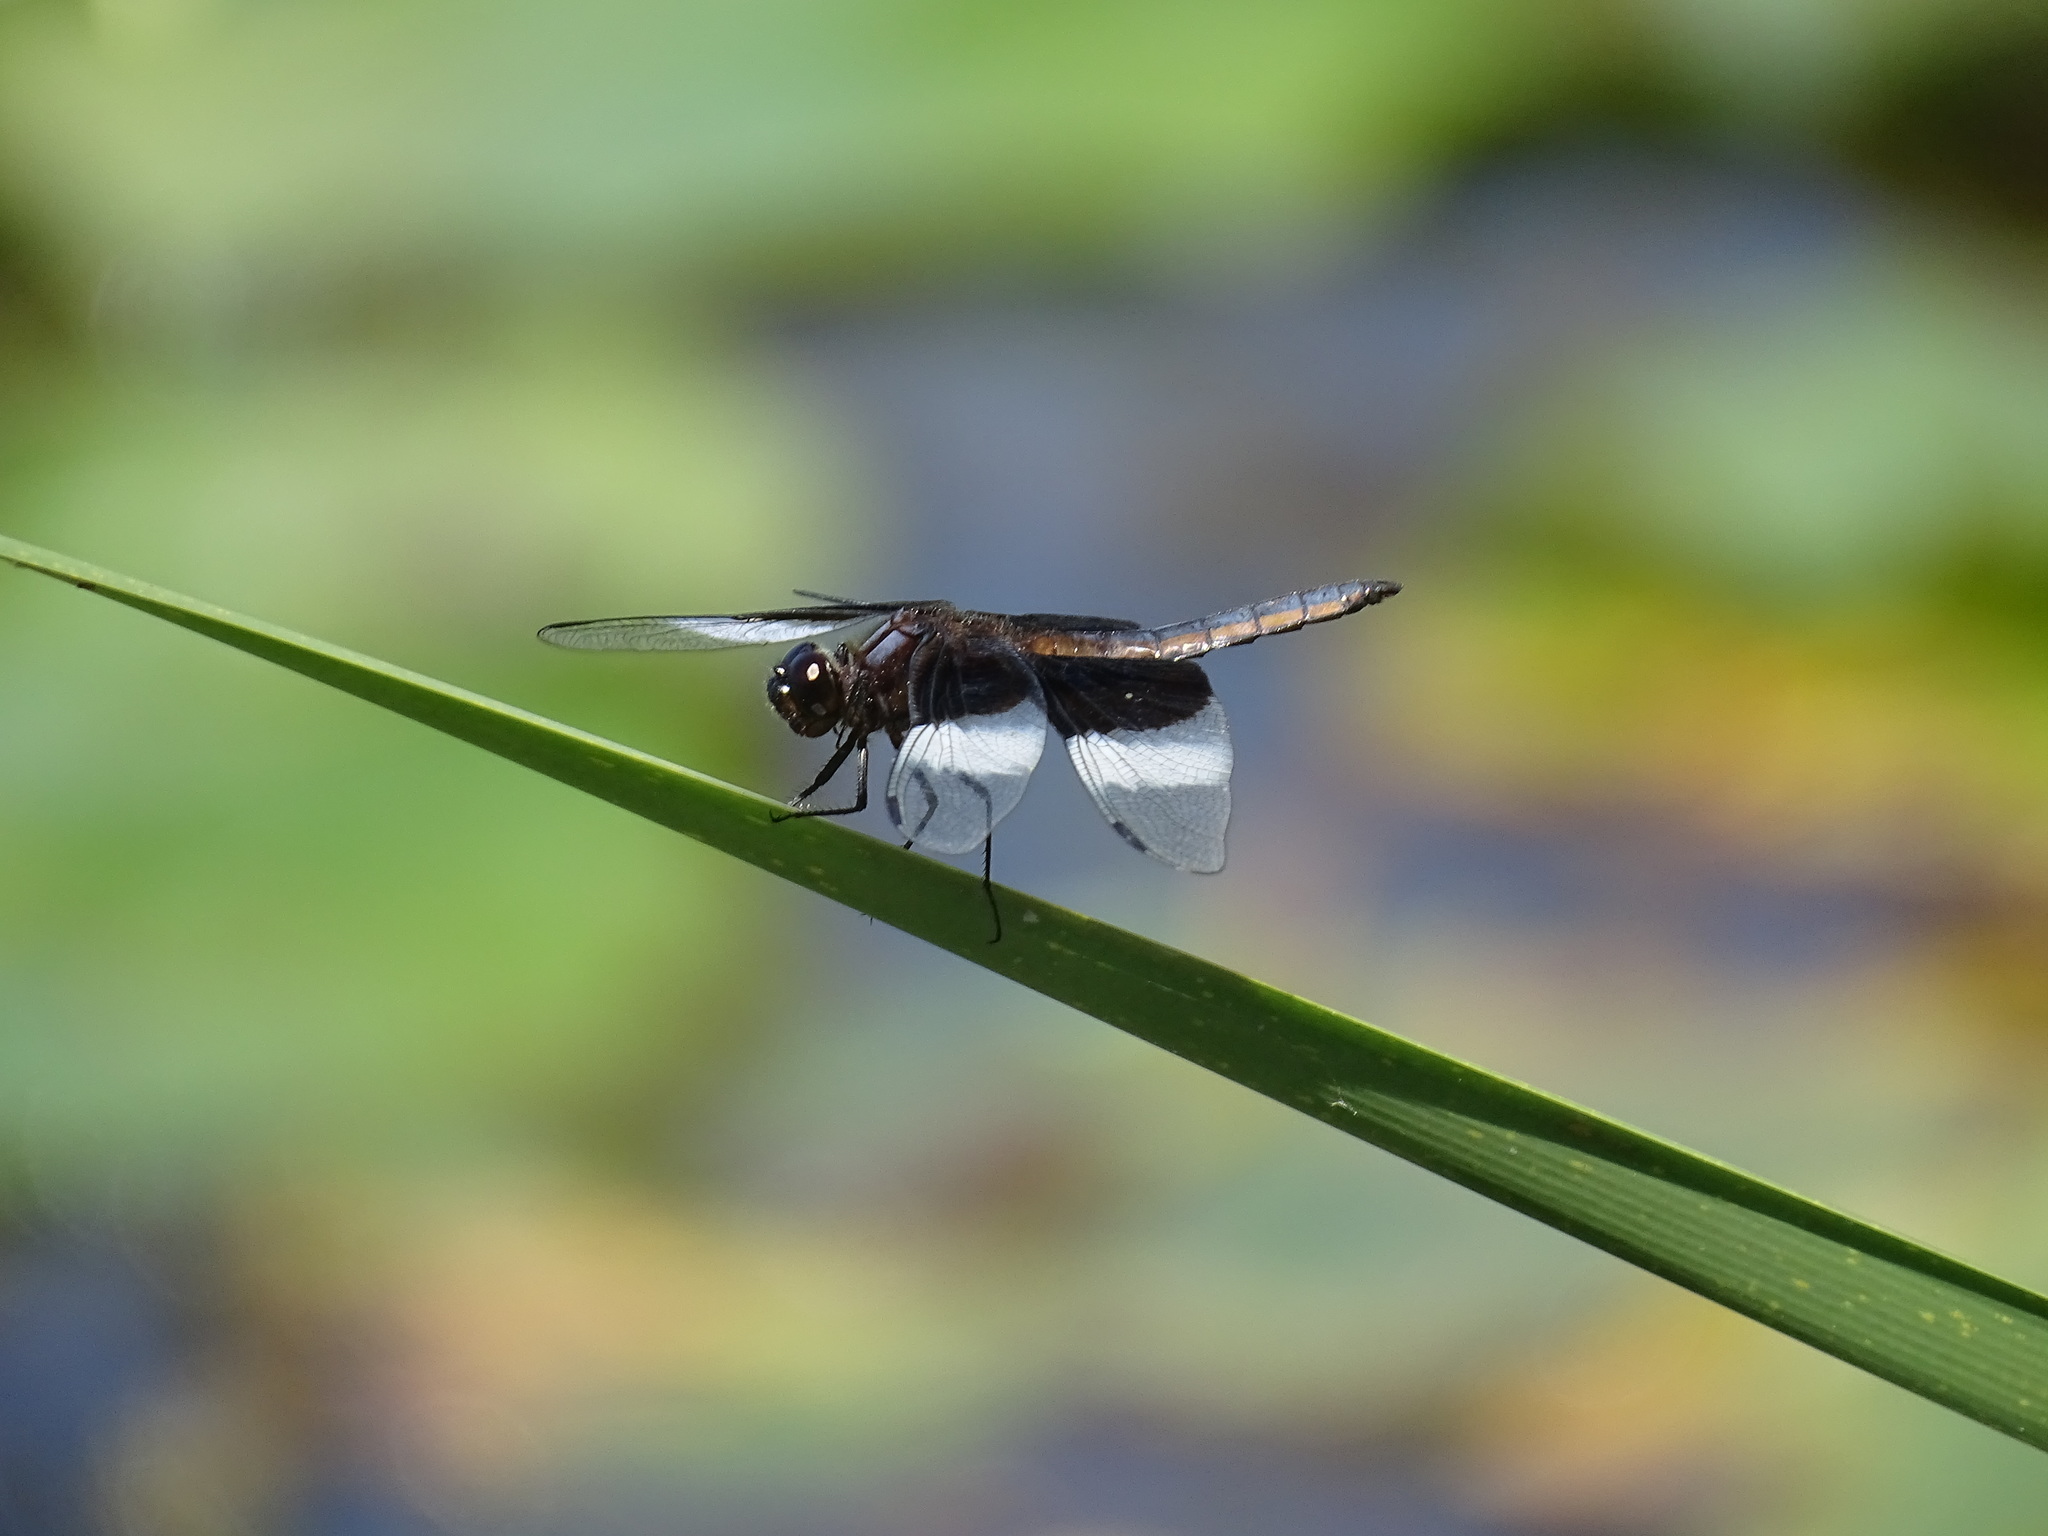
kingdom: Animalia
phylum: Arthropoda
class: Insecta
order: Odonata
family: Libellulidae
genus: Libellula
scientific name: Libellula luctuosa
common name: Widow skimmer
